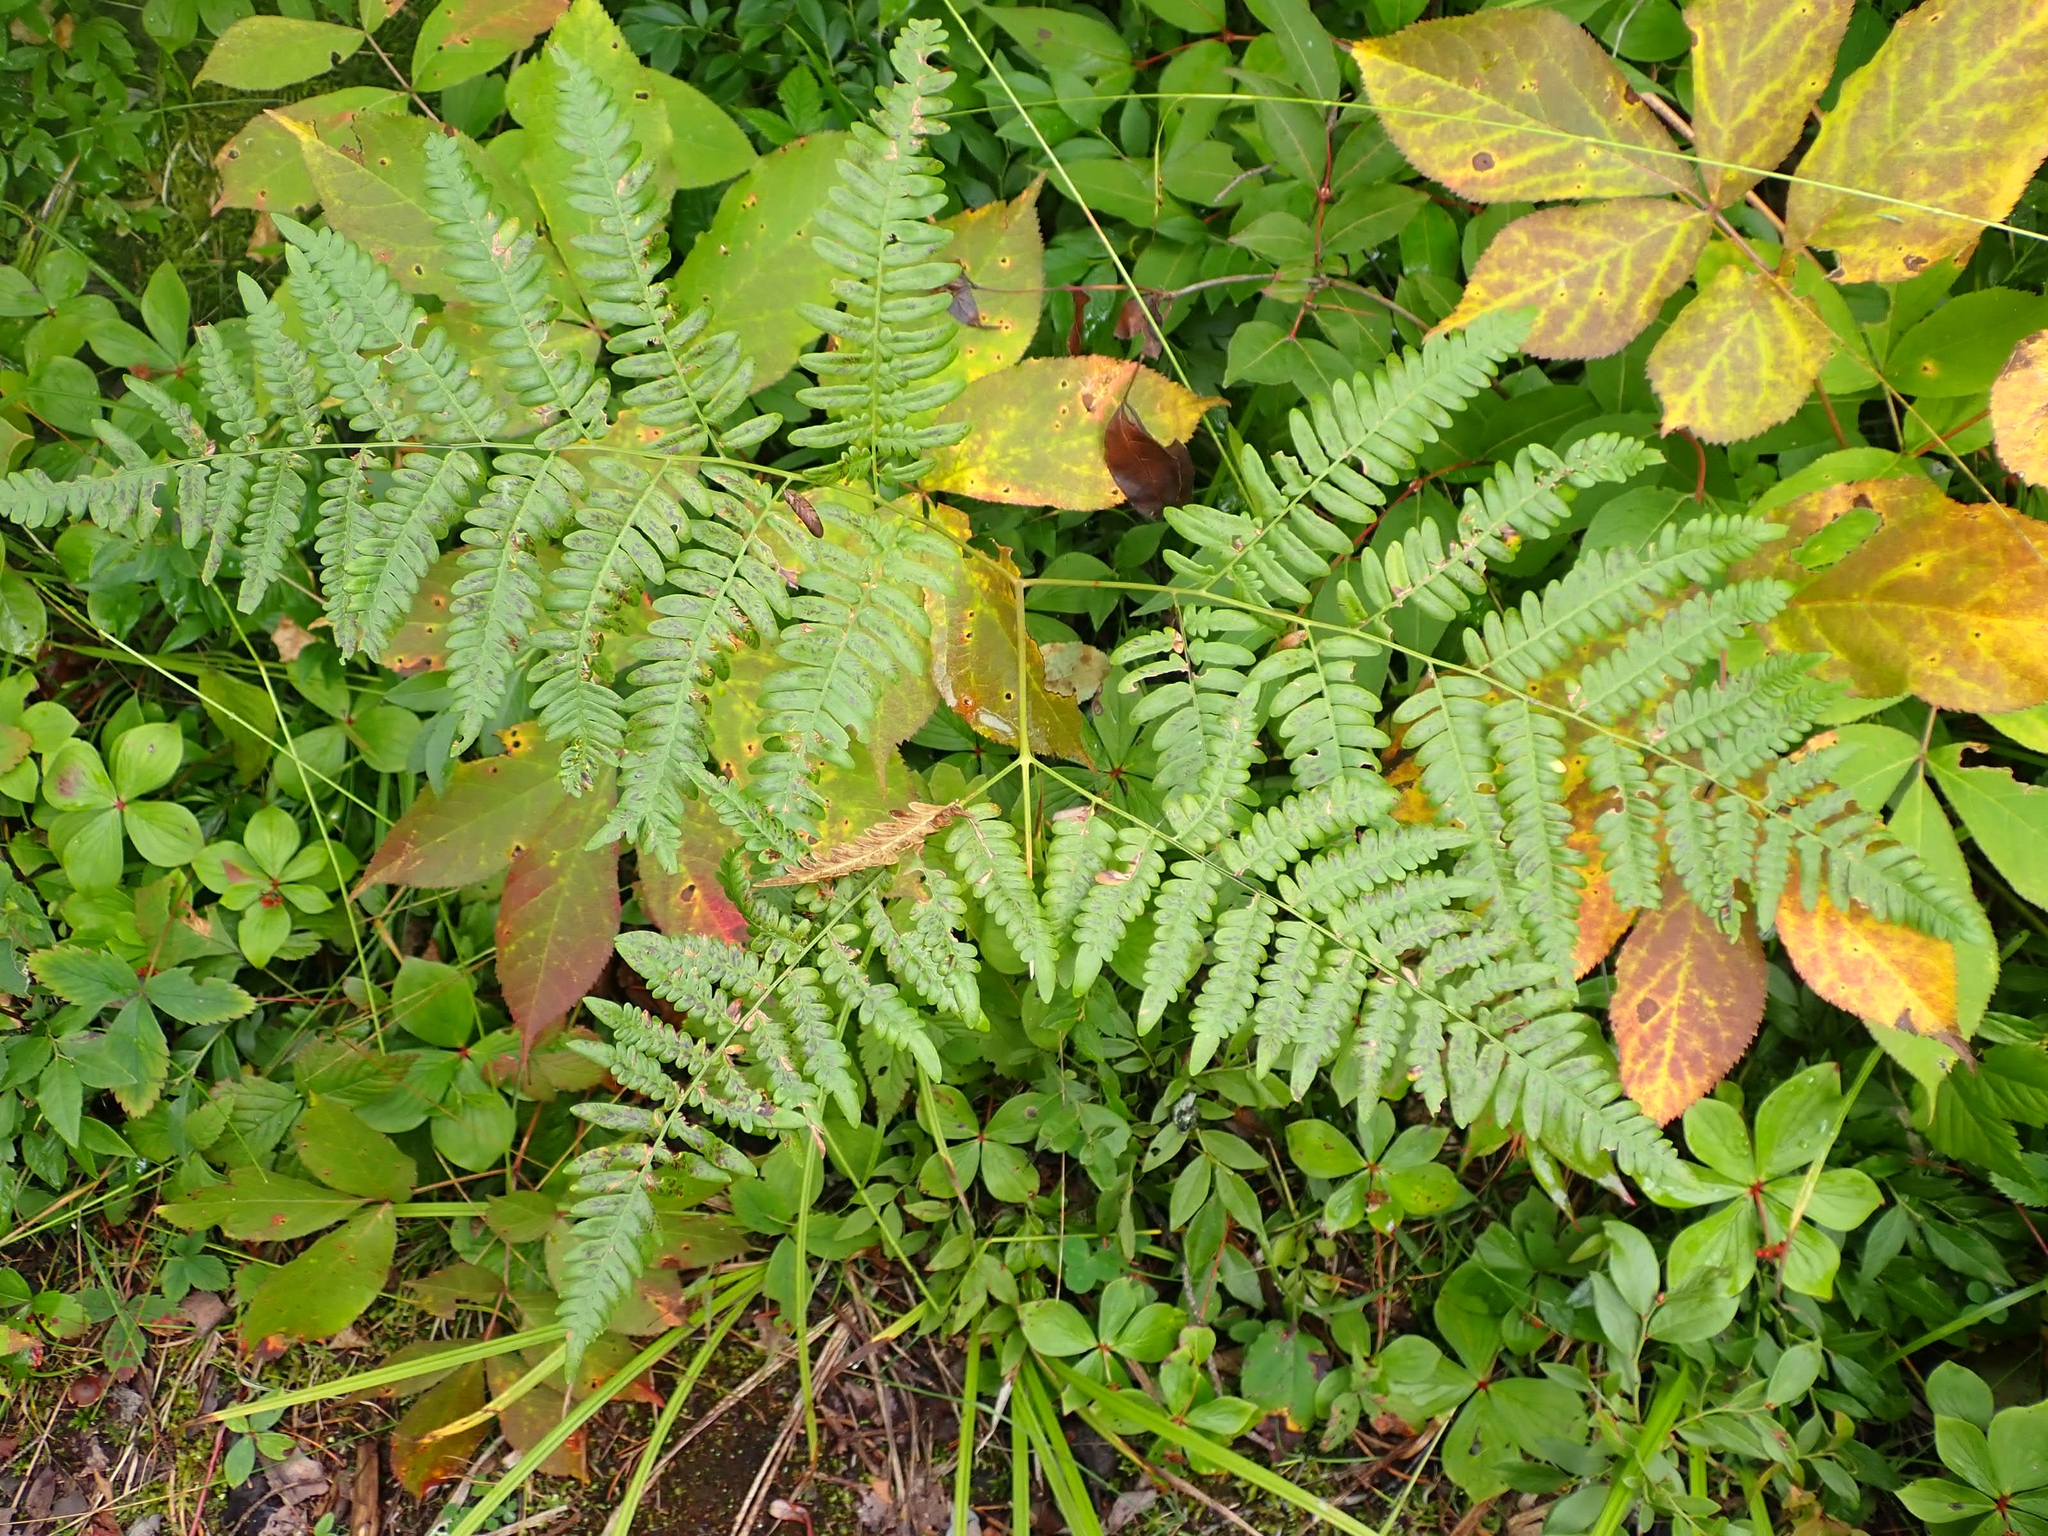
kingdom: Plantae
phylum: Tracheophyta
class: Polypodiopsida
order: Polypodiales
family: Dennstaedtiaceae
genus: Pteridium
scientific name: Pteridium aquilinum
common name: Bracken
